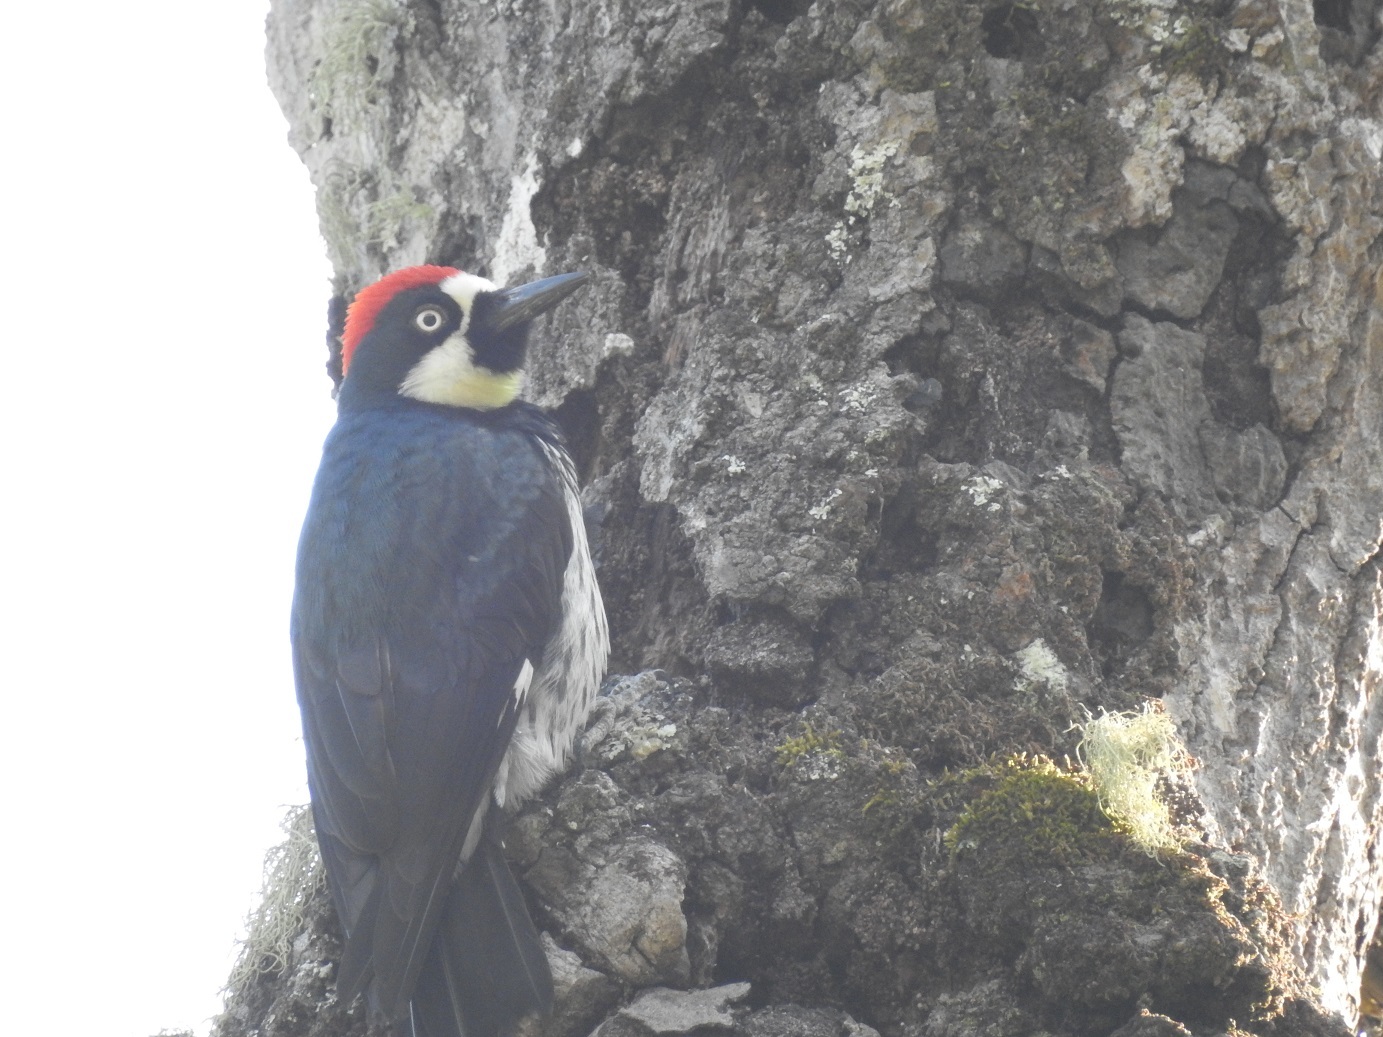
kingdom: Animalia
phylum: Chordata
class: Aves
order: Piciformes
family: Picidae
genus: Melanerpes
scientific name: Melanerpes formicivorus
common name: Acorn woodpecker
